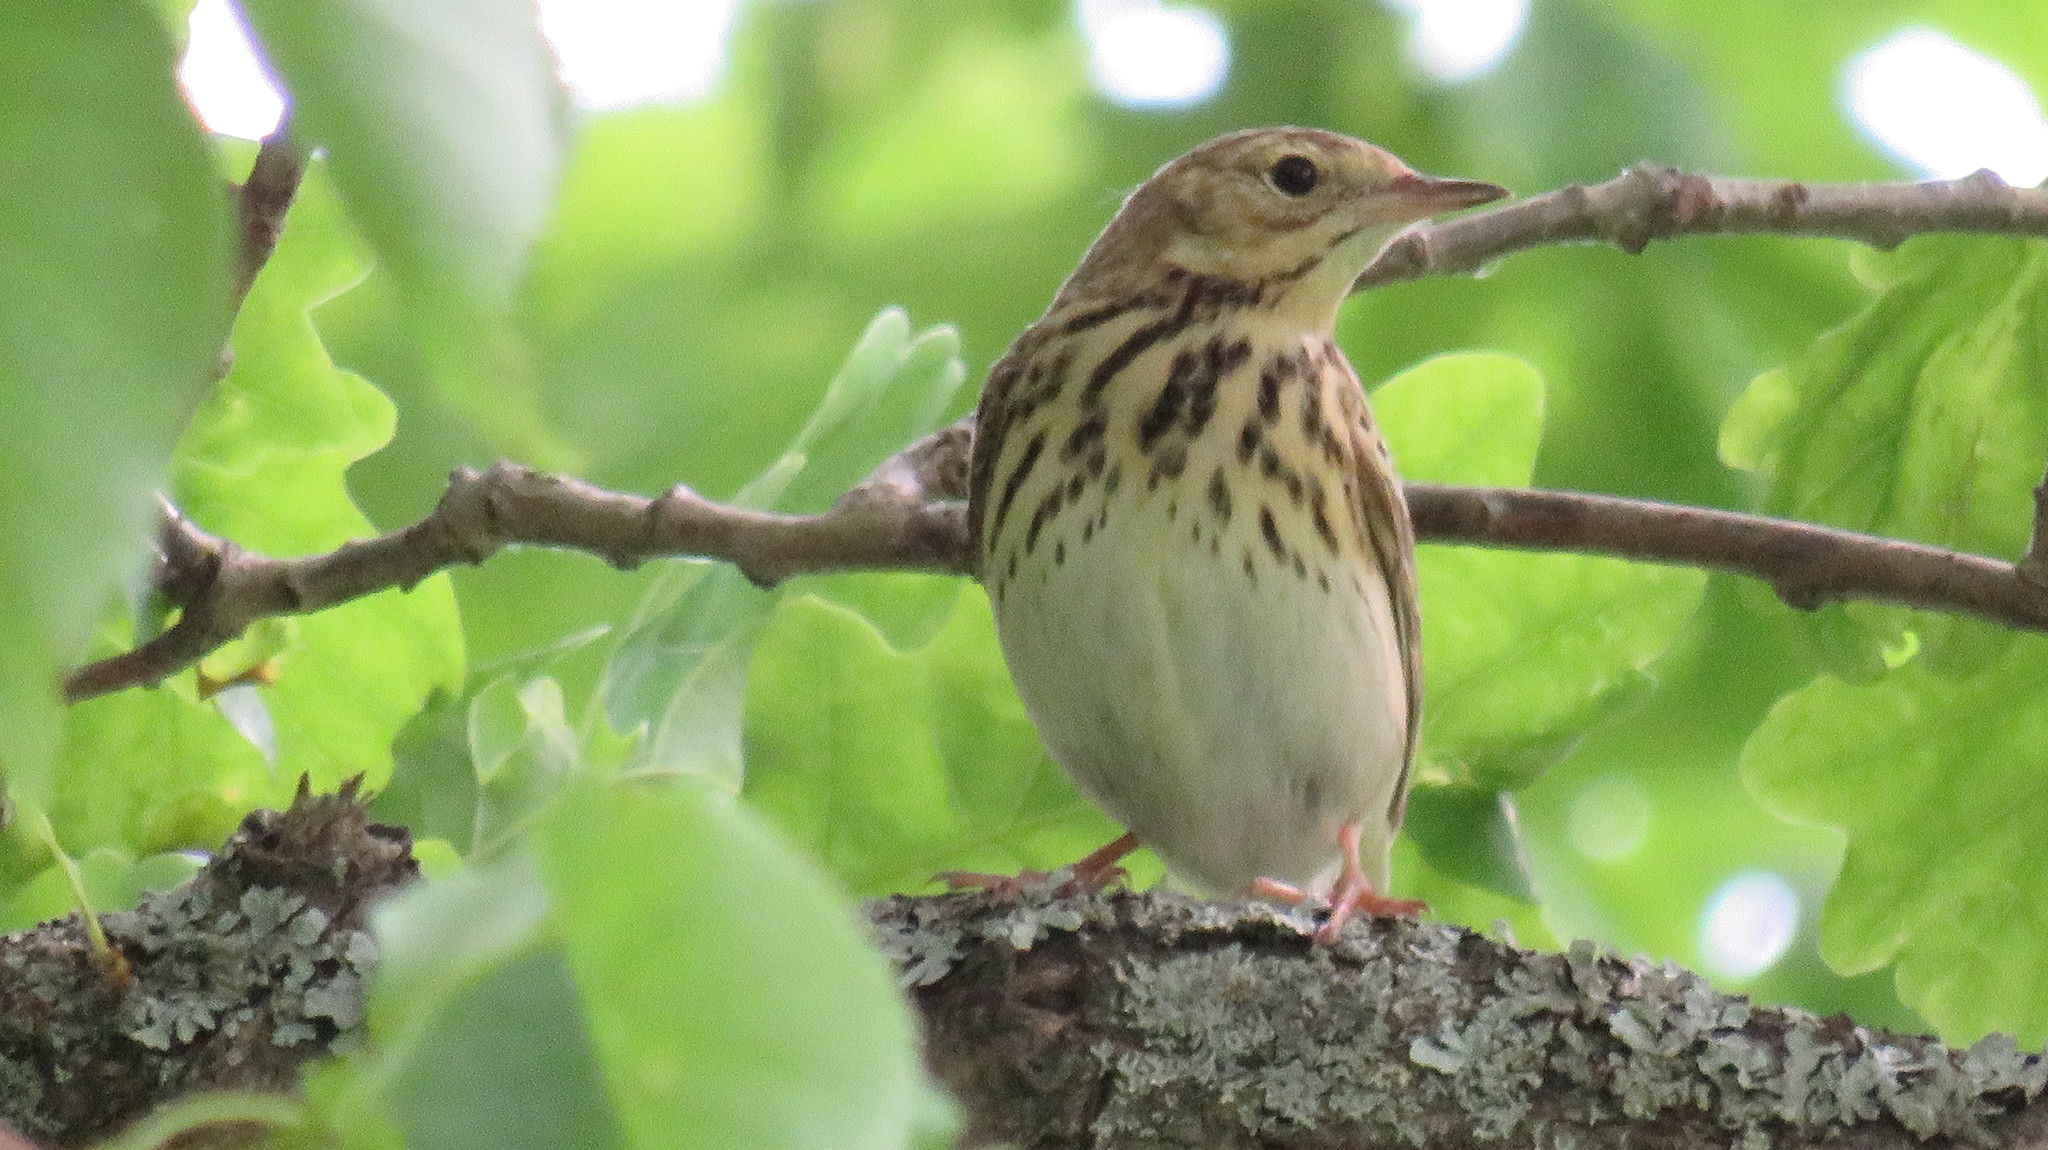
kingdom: Animalia
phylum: Chordata
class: Aves
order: Passeriformes
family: Motacillidae
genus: Anthus
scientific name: Anthus trivialis
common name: Tree pipit
